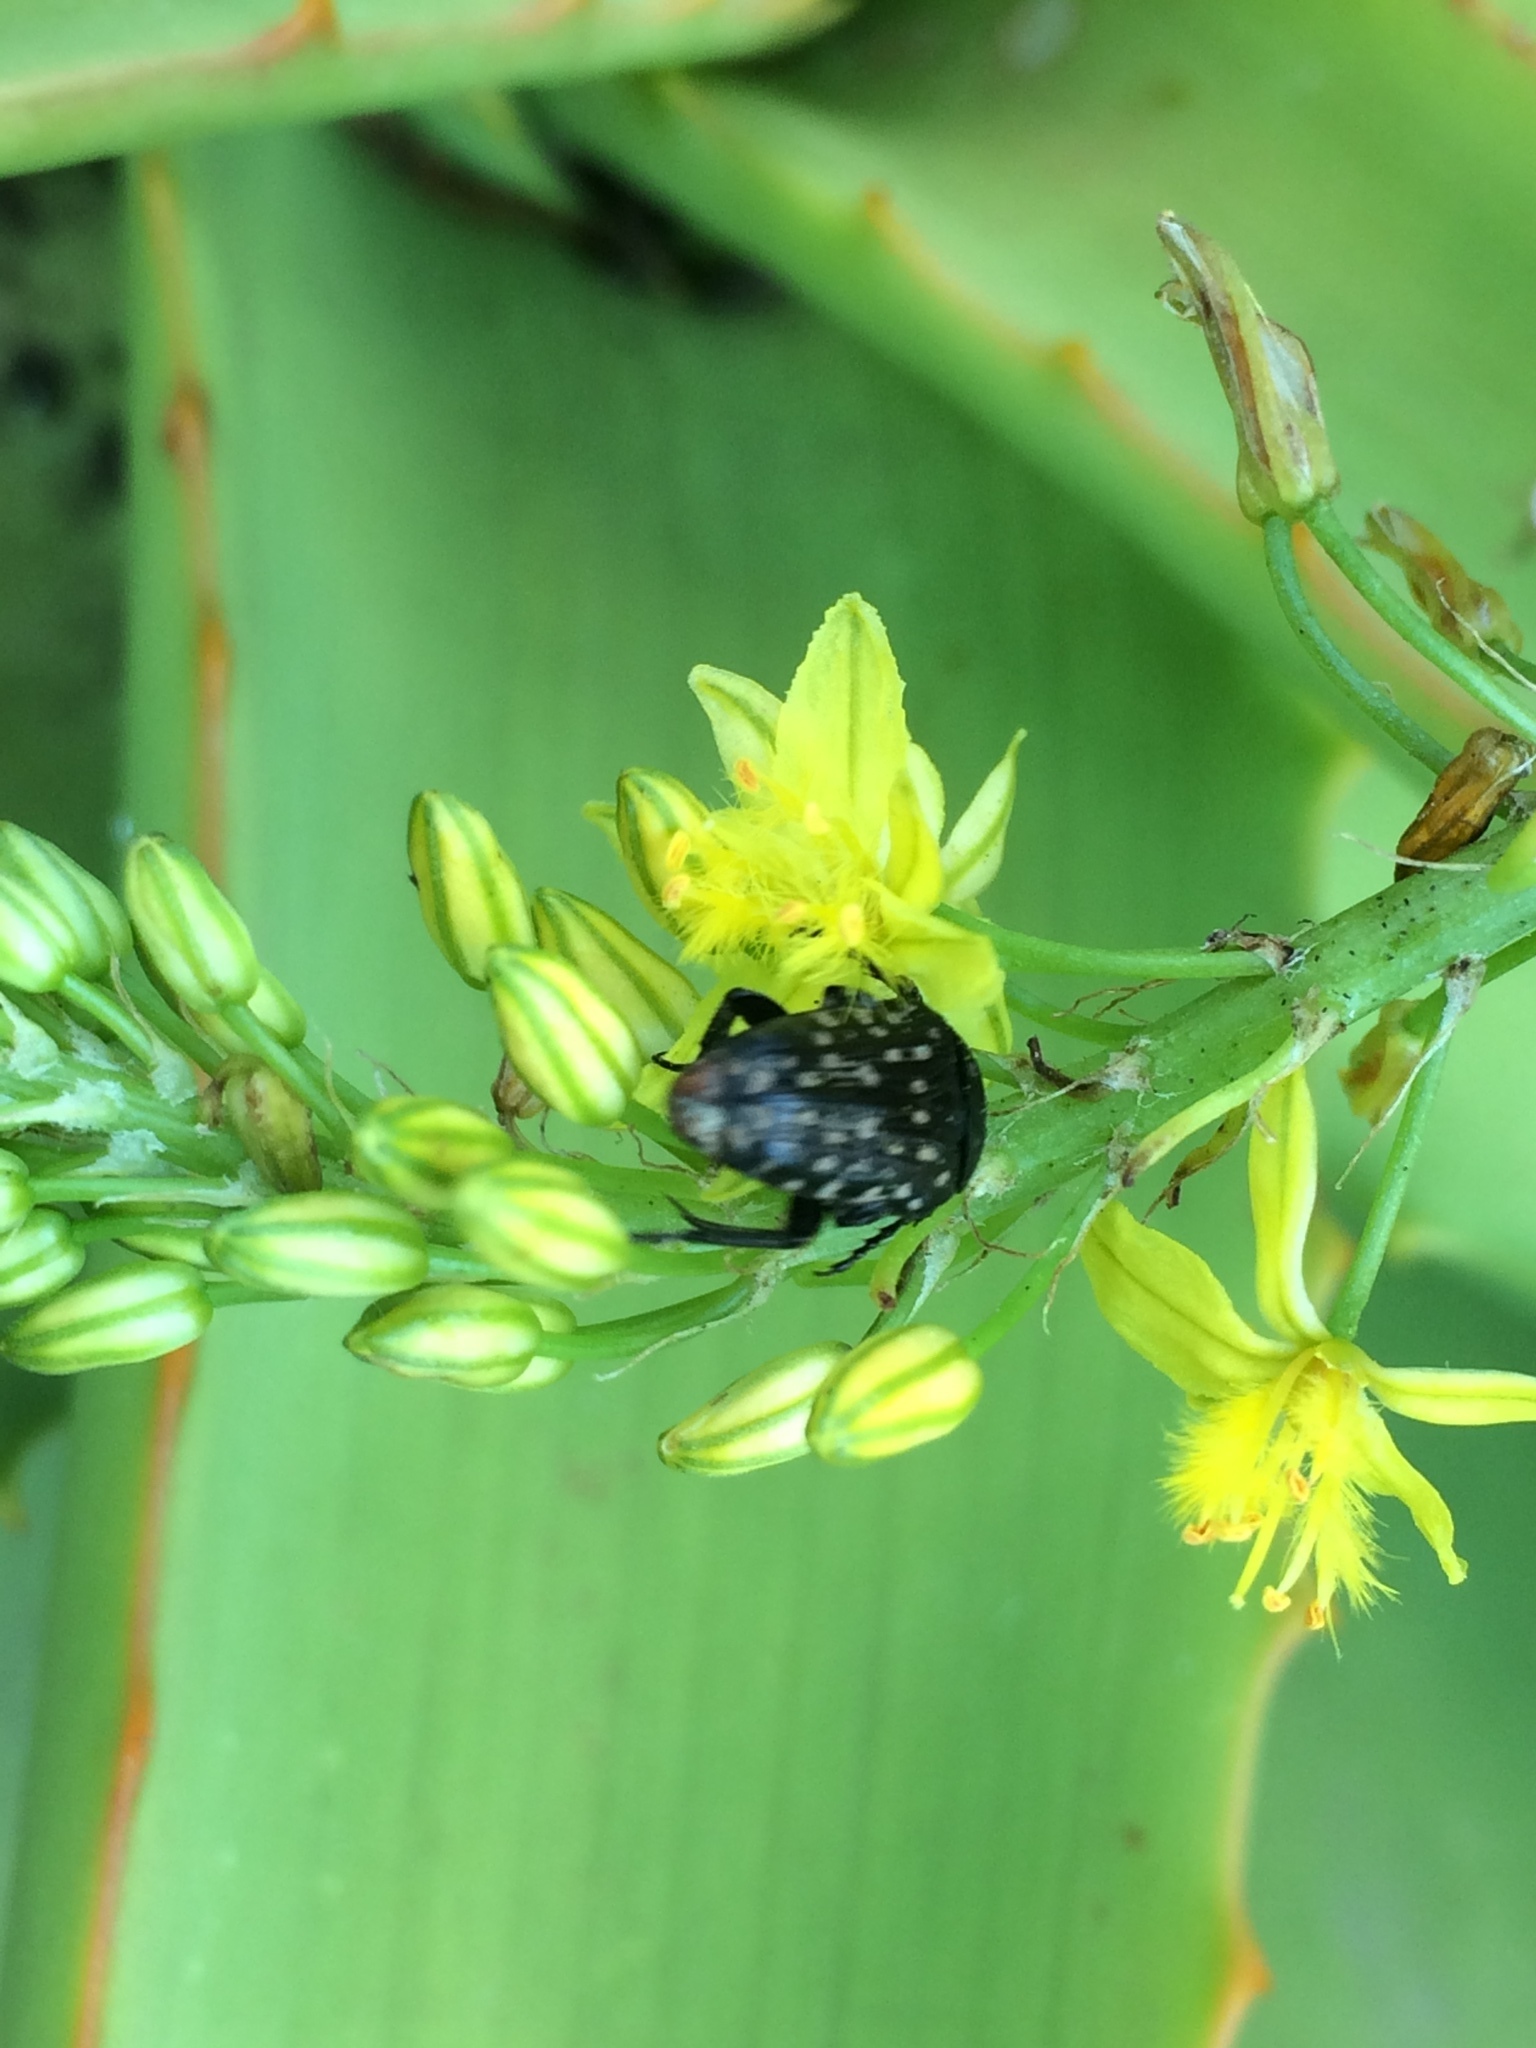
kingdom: Animalia
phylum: Arthropoda
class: Insecta
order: Coleoptera
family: Scarabaeidae
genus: Oxythyrea
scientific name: Oxythyrea
